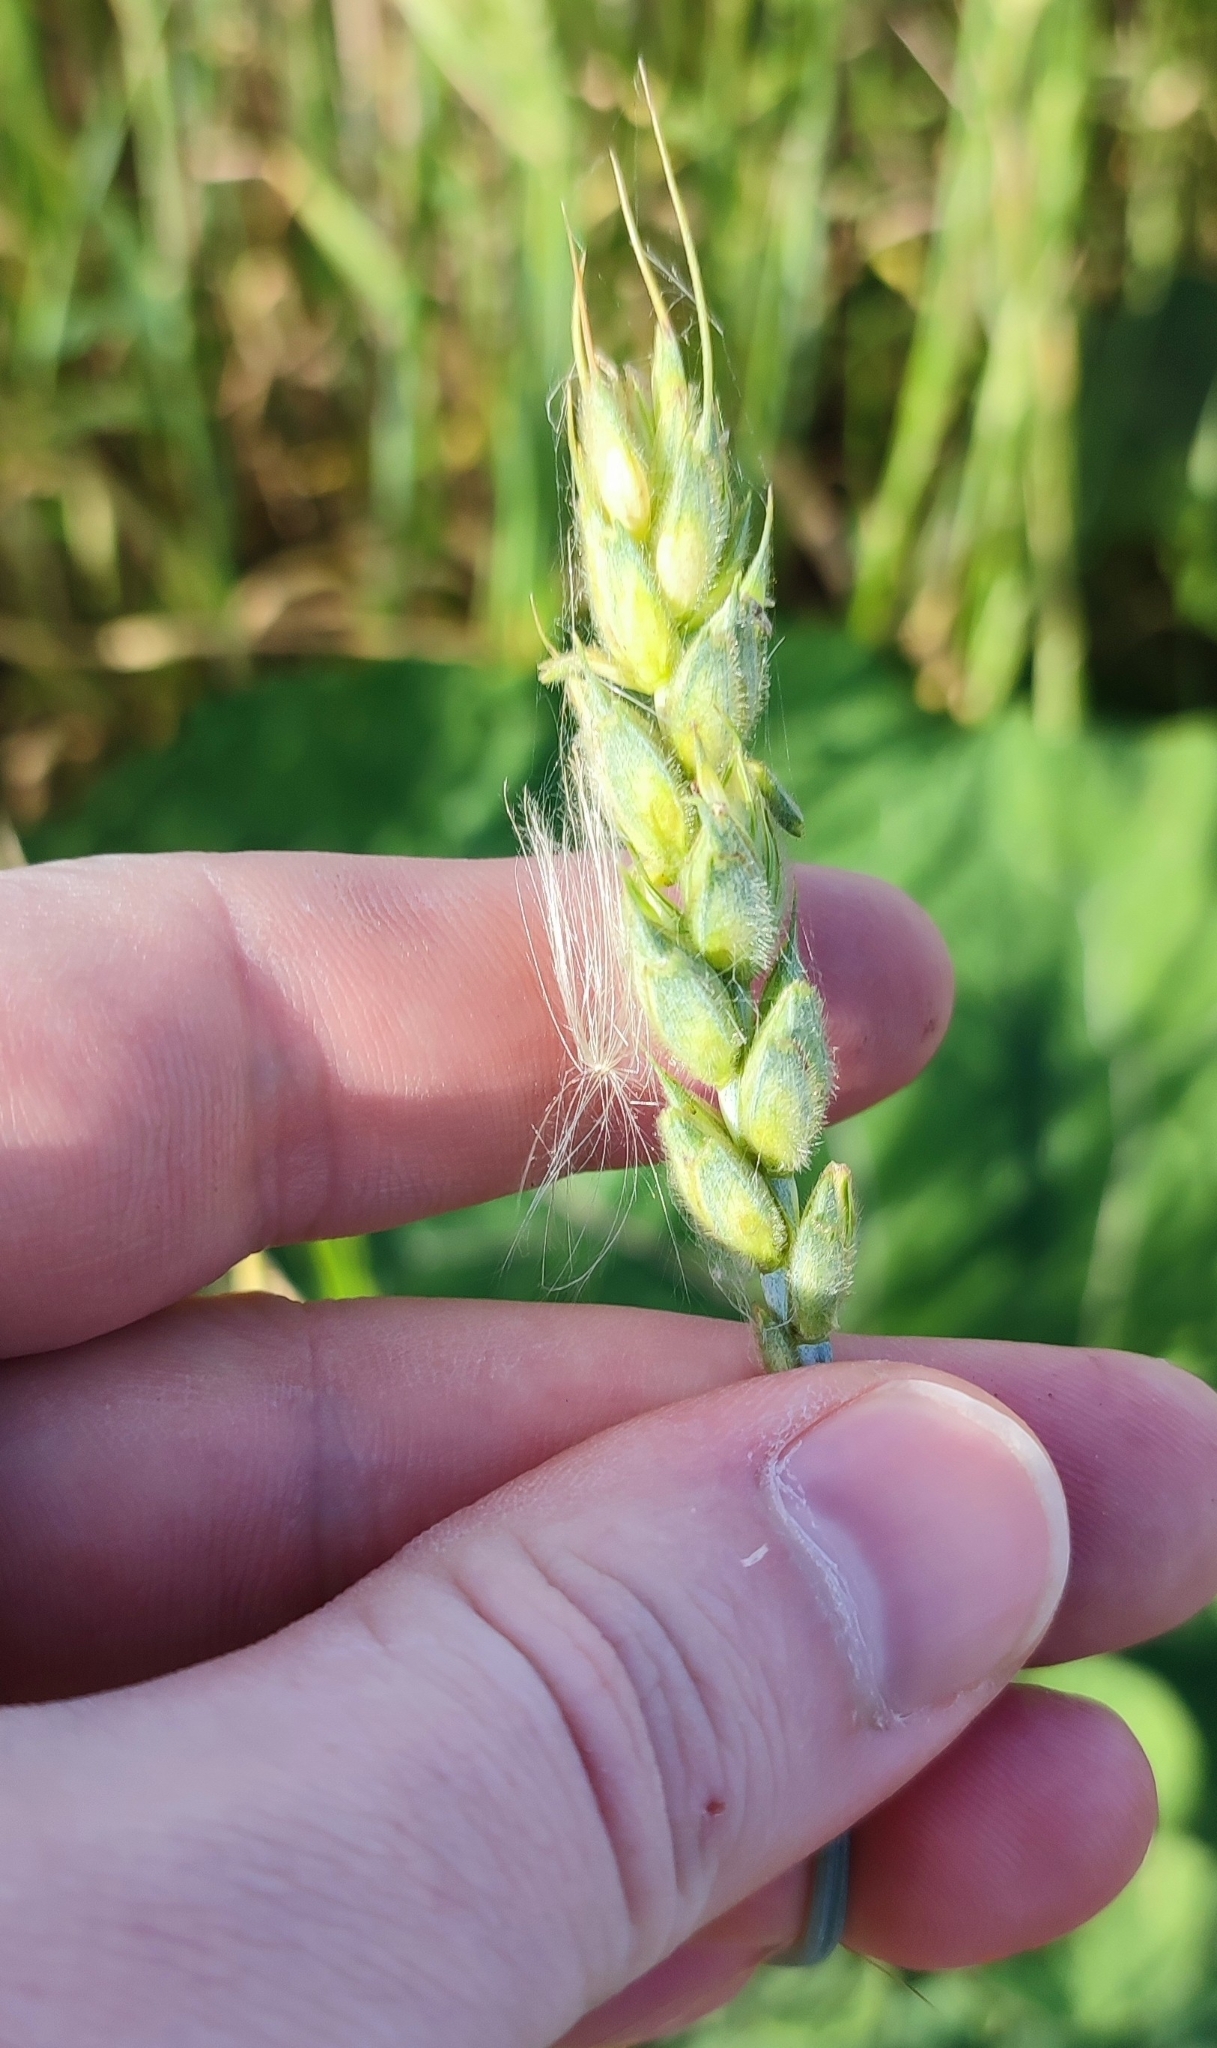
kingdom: Plantae
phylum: Tracheophyta
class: Liliopsida
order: Poales
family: Poaceae
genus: Triticum
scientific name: Triticum aestivum
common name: Common wheat
